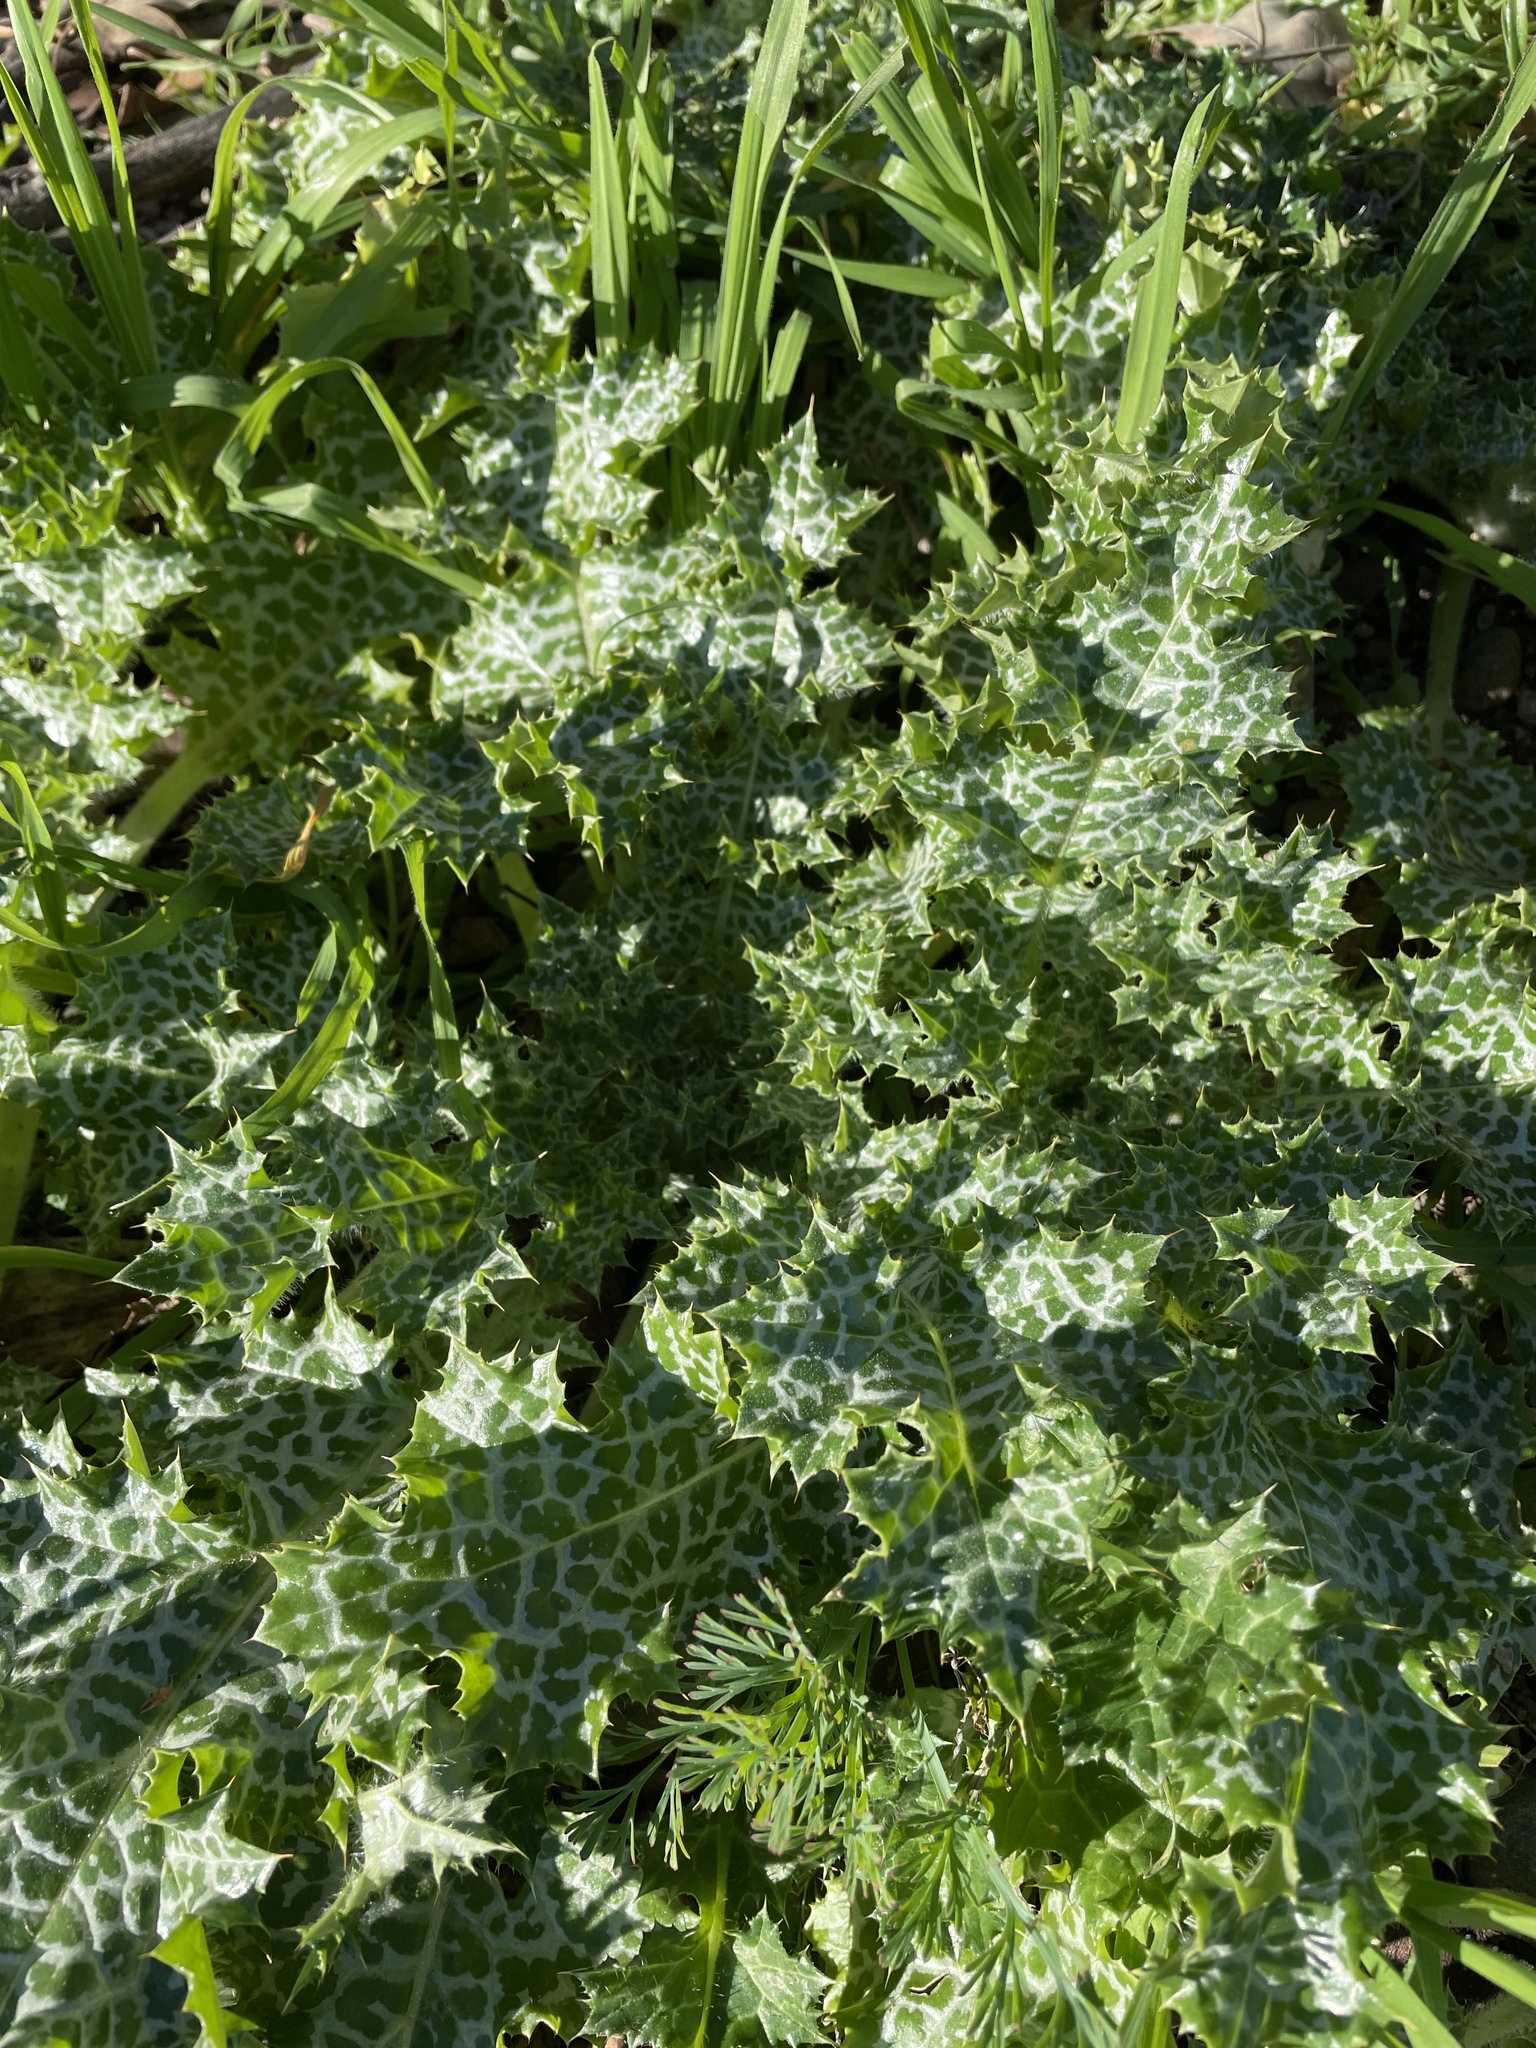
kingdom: Plantae
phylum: Tracheophyta
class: Magnoliopsida
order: Asterales
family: Asteraceae
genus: Silybum
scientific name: Silybum marianum
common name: Milk thistle
